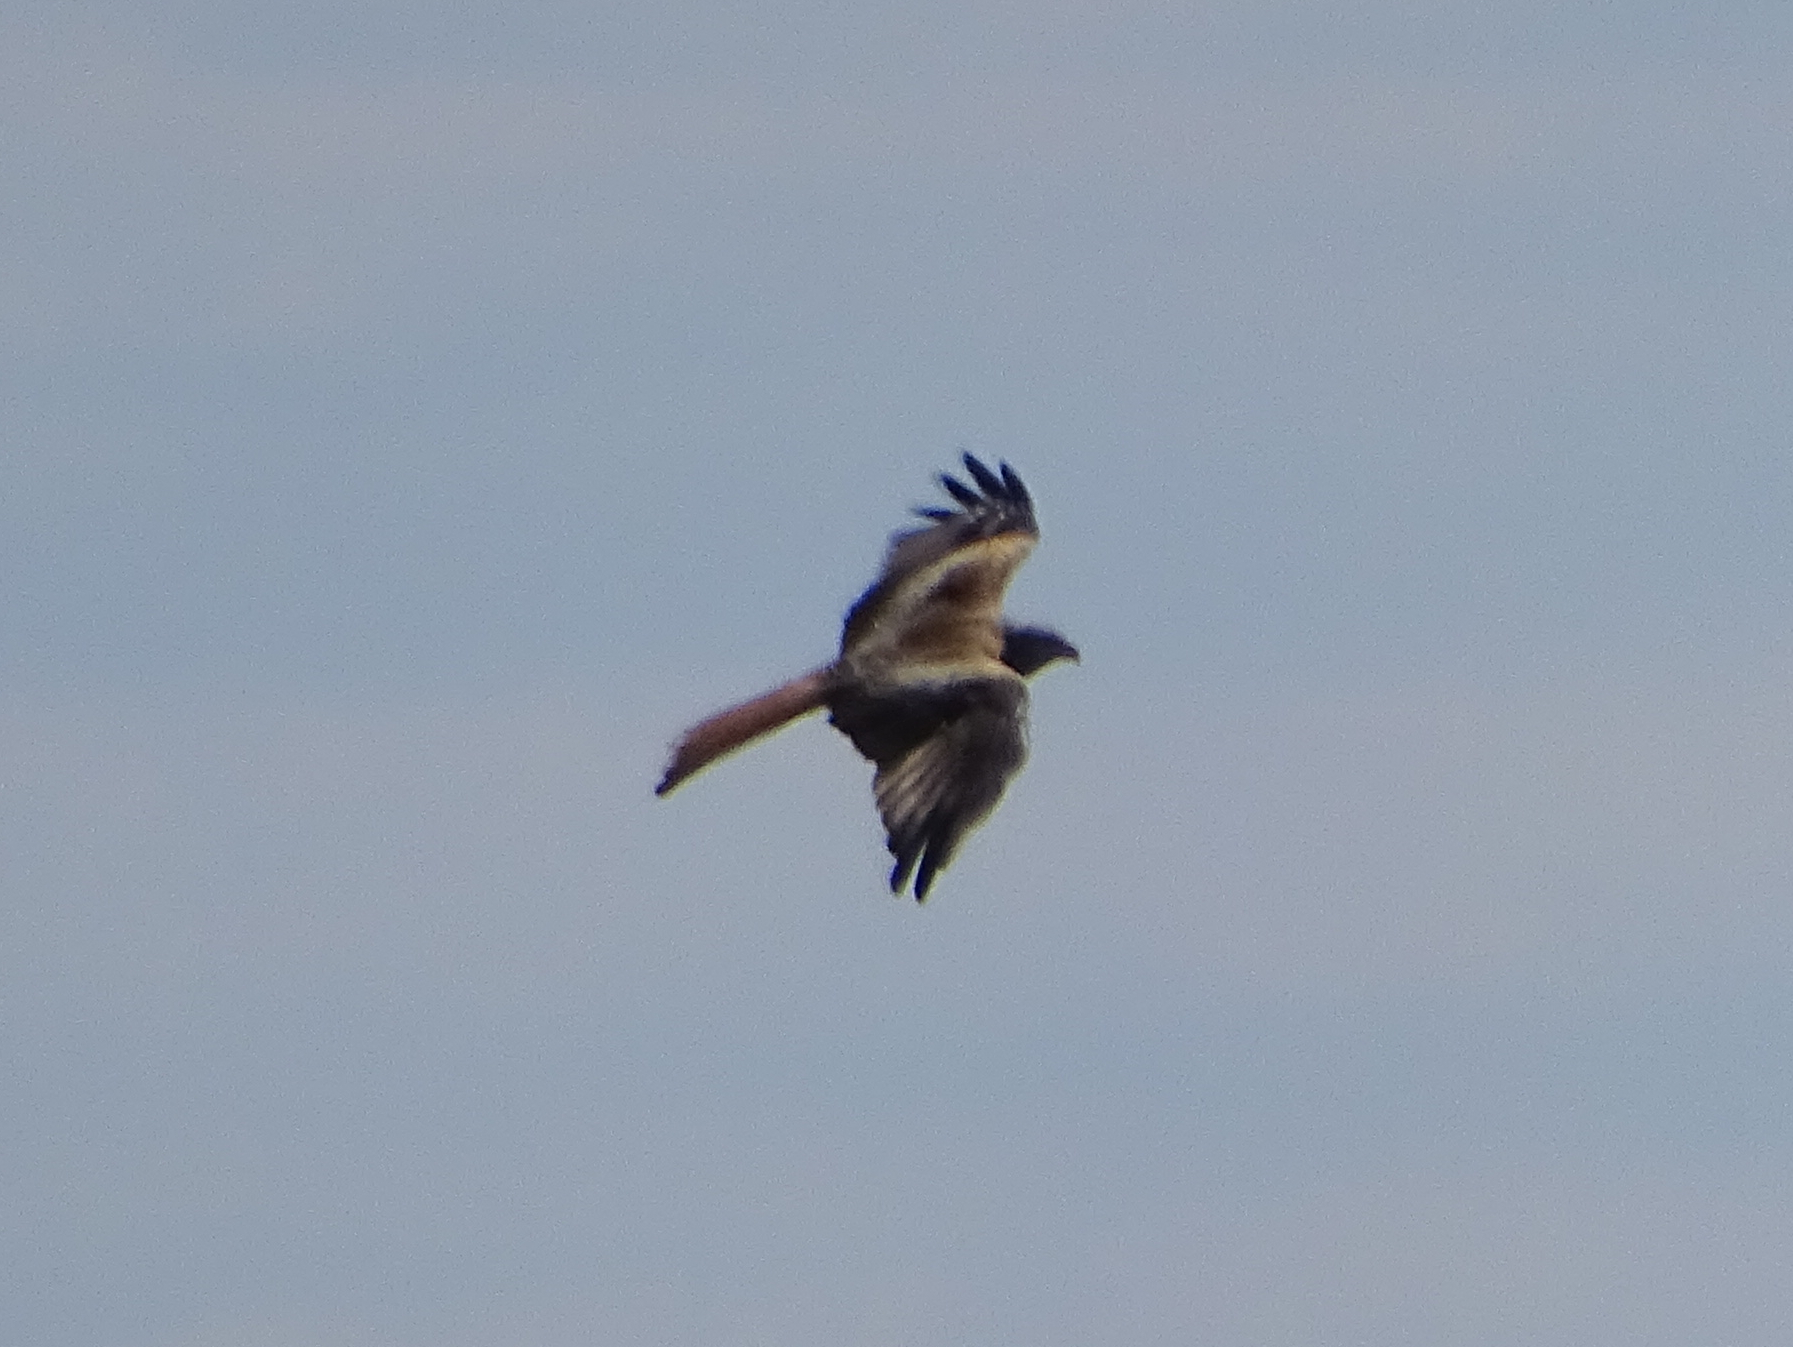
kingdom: Animalia
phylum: Chordata
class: Aves
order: Accipitriformes
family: Accipitridae
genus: Milvus
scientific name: Milvus milvus
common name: Red kite
